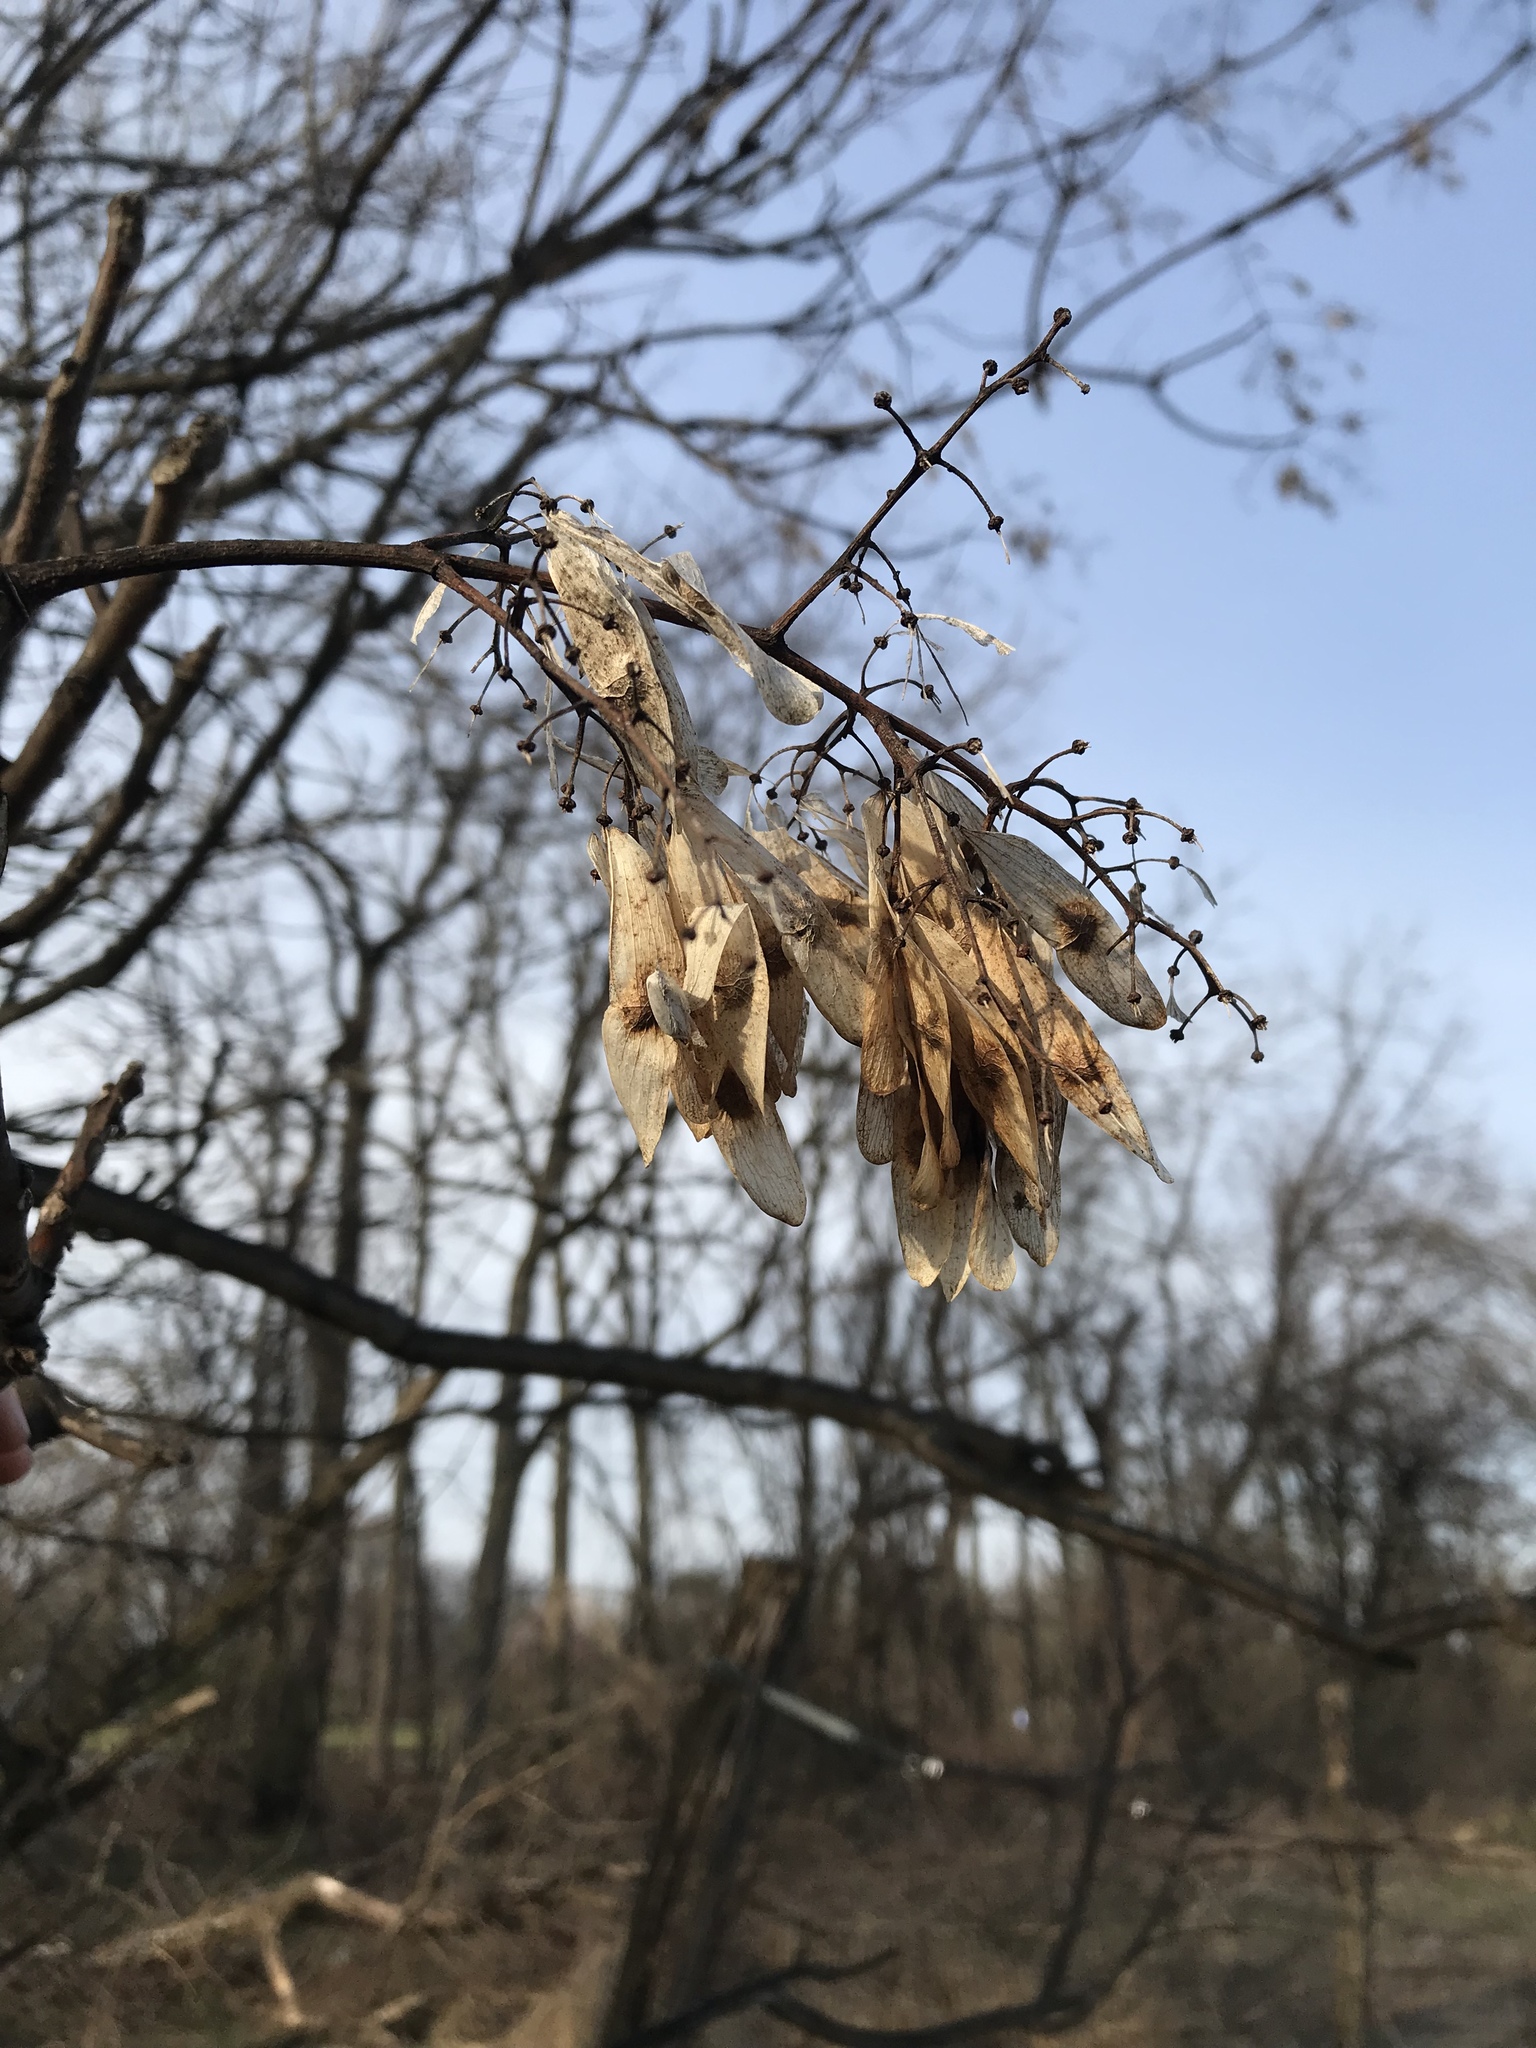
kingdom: Plantae
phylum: Tracheophyta
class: Magnoliopsida
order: Sapindales
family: Simaroubaceae
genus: Ailanthus
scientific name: Ailanthus altissima
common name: Tree-of-heaven
